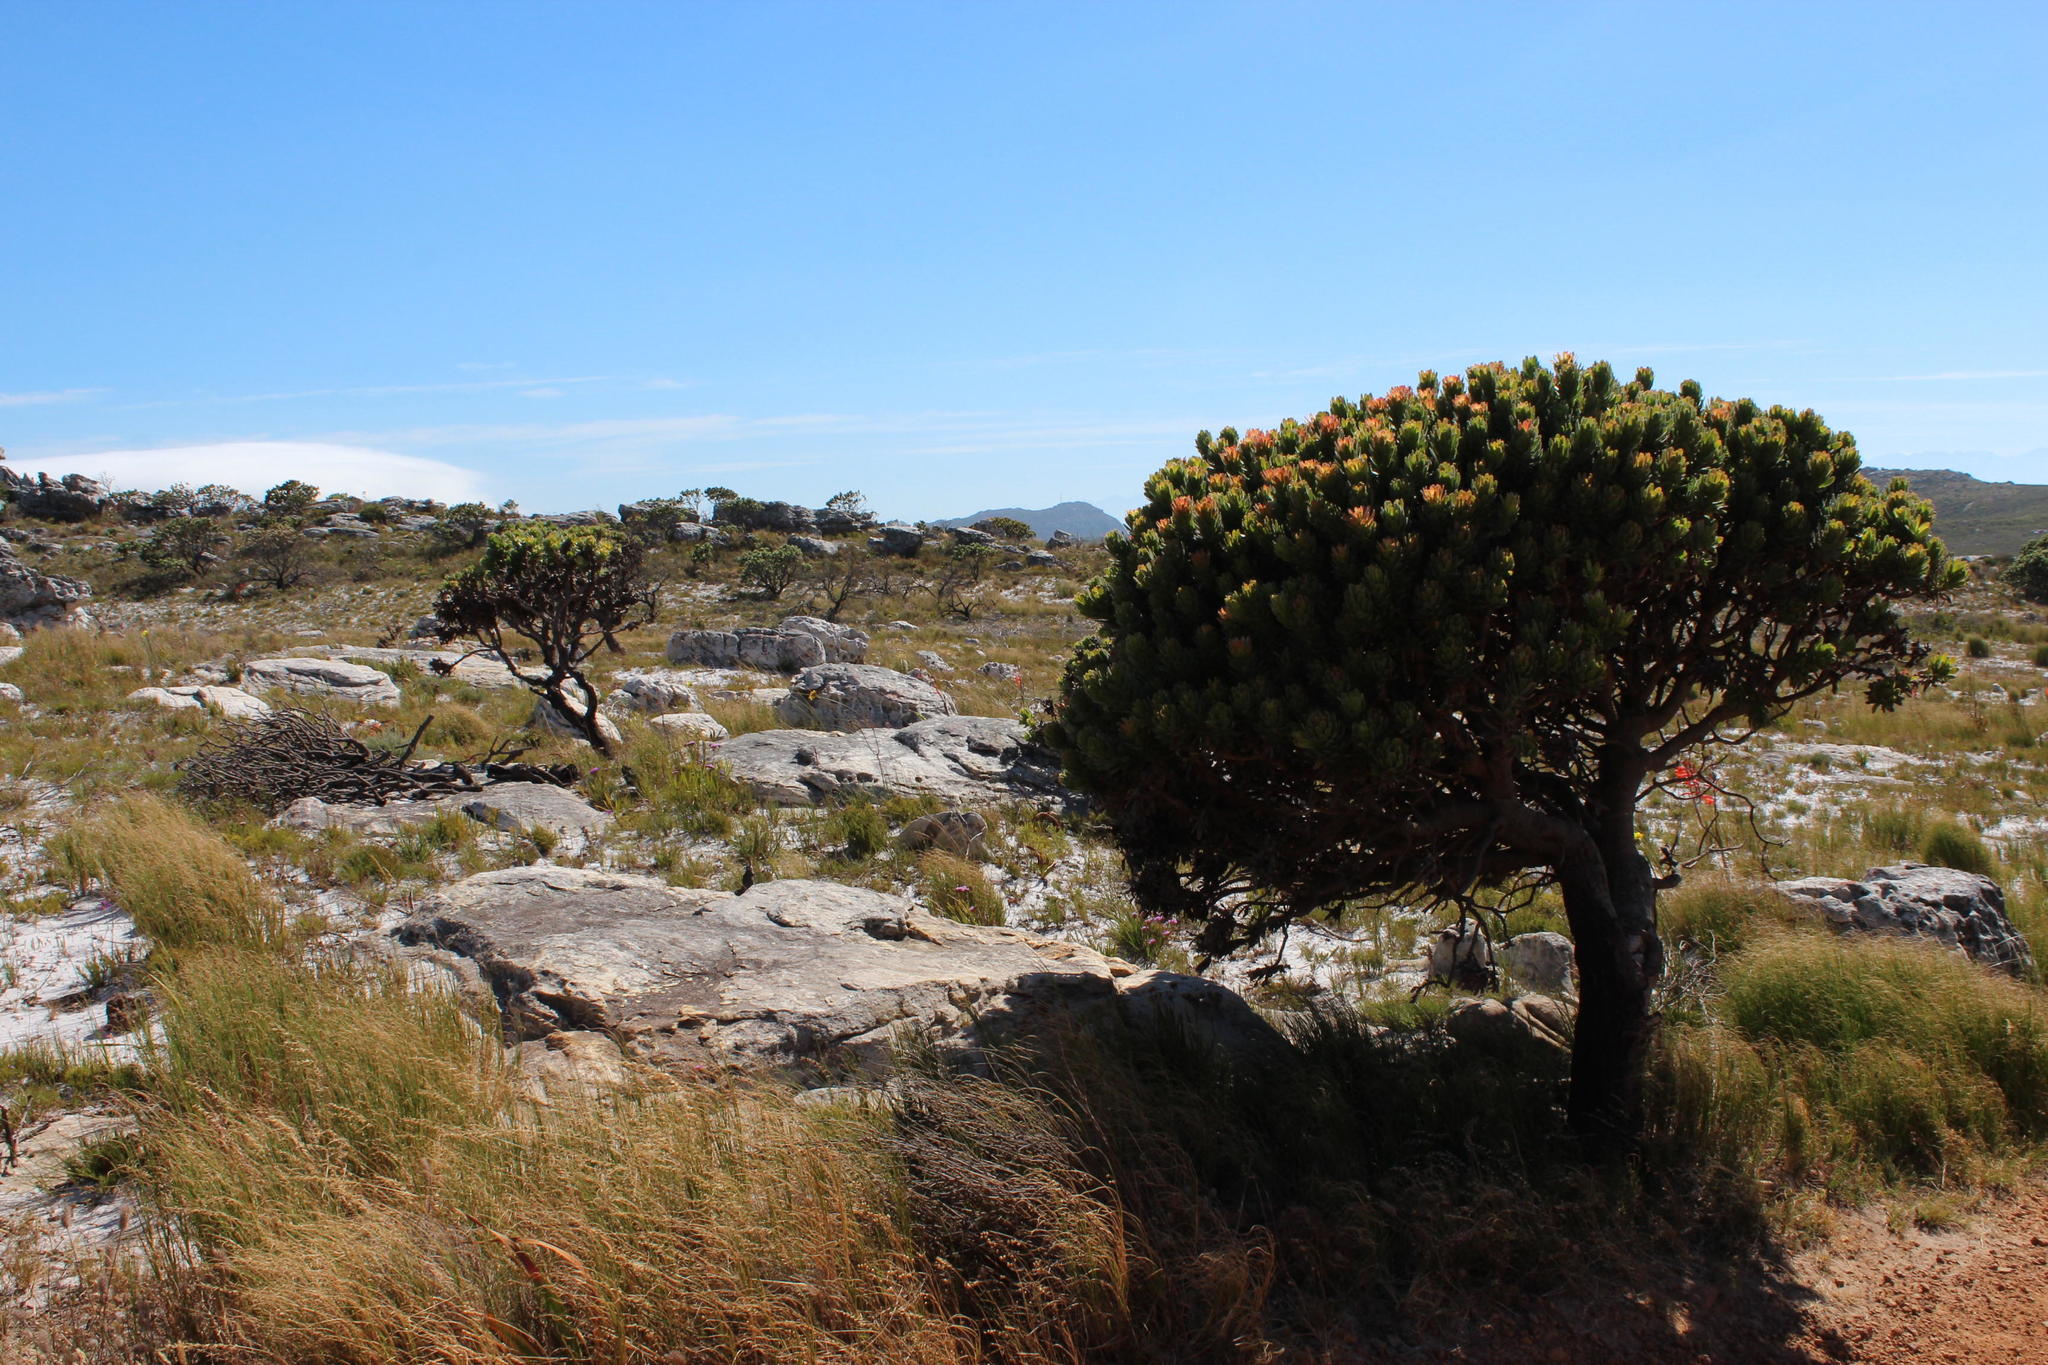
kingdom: Plantae
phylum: Tracheophyta
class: Magnoliopsida
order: Proteales
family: Proteaceae
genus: Mimetes
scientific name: Mimetes fimbriifolius
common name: Fringed bottlebrush
